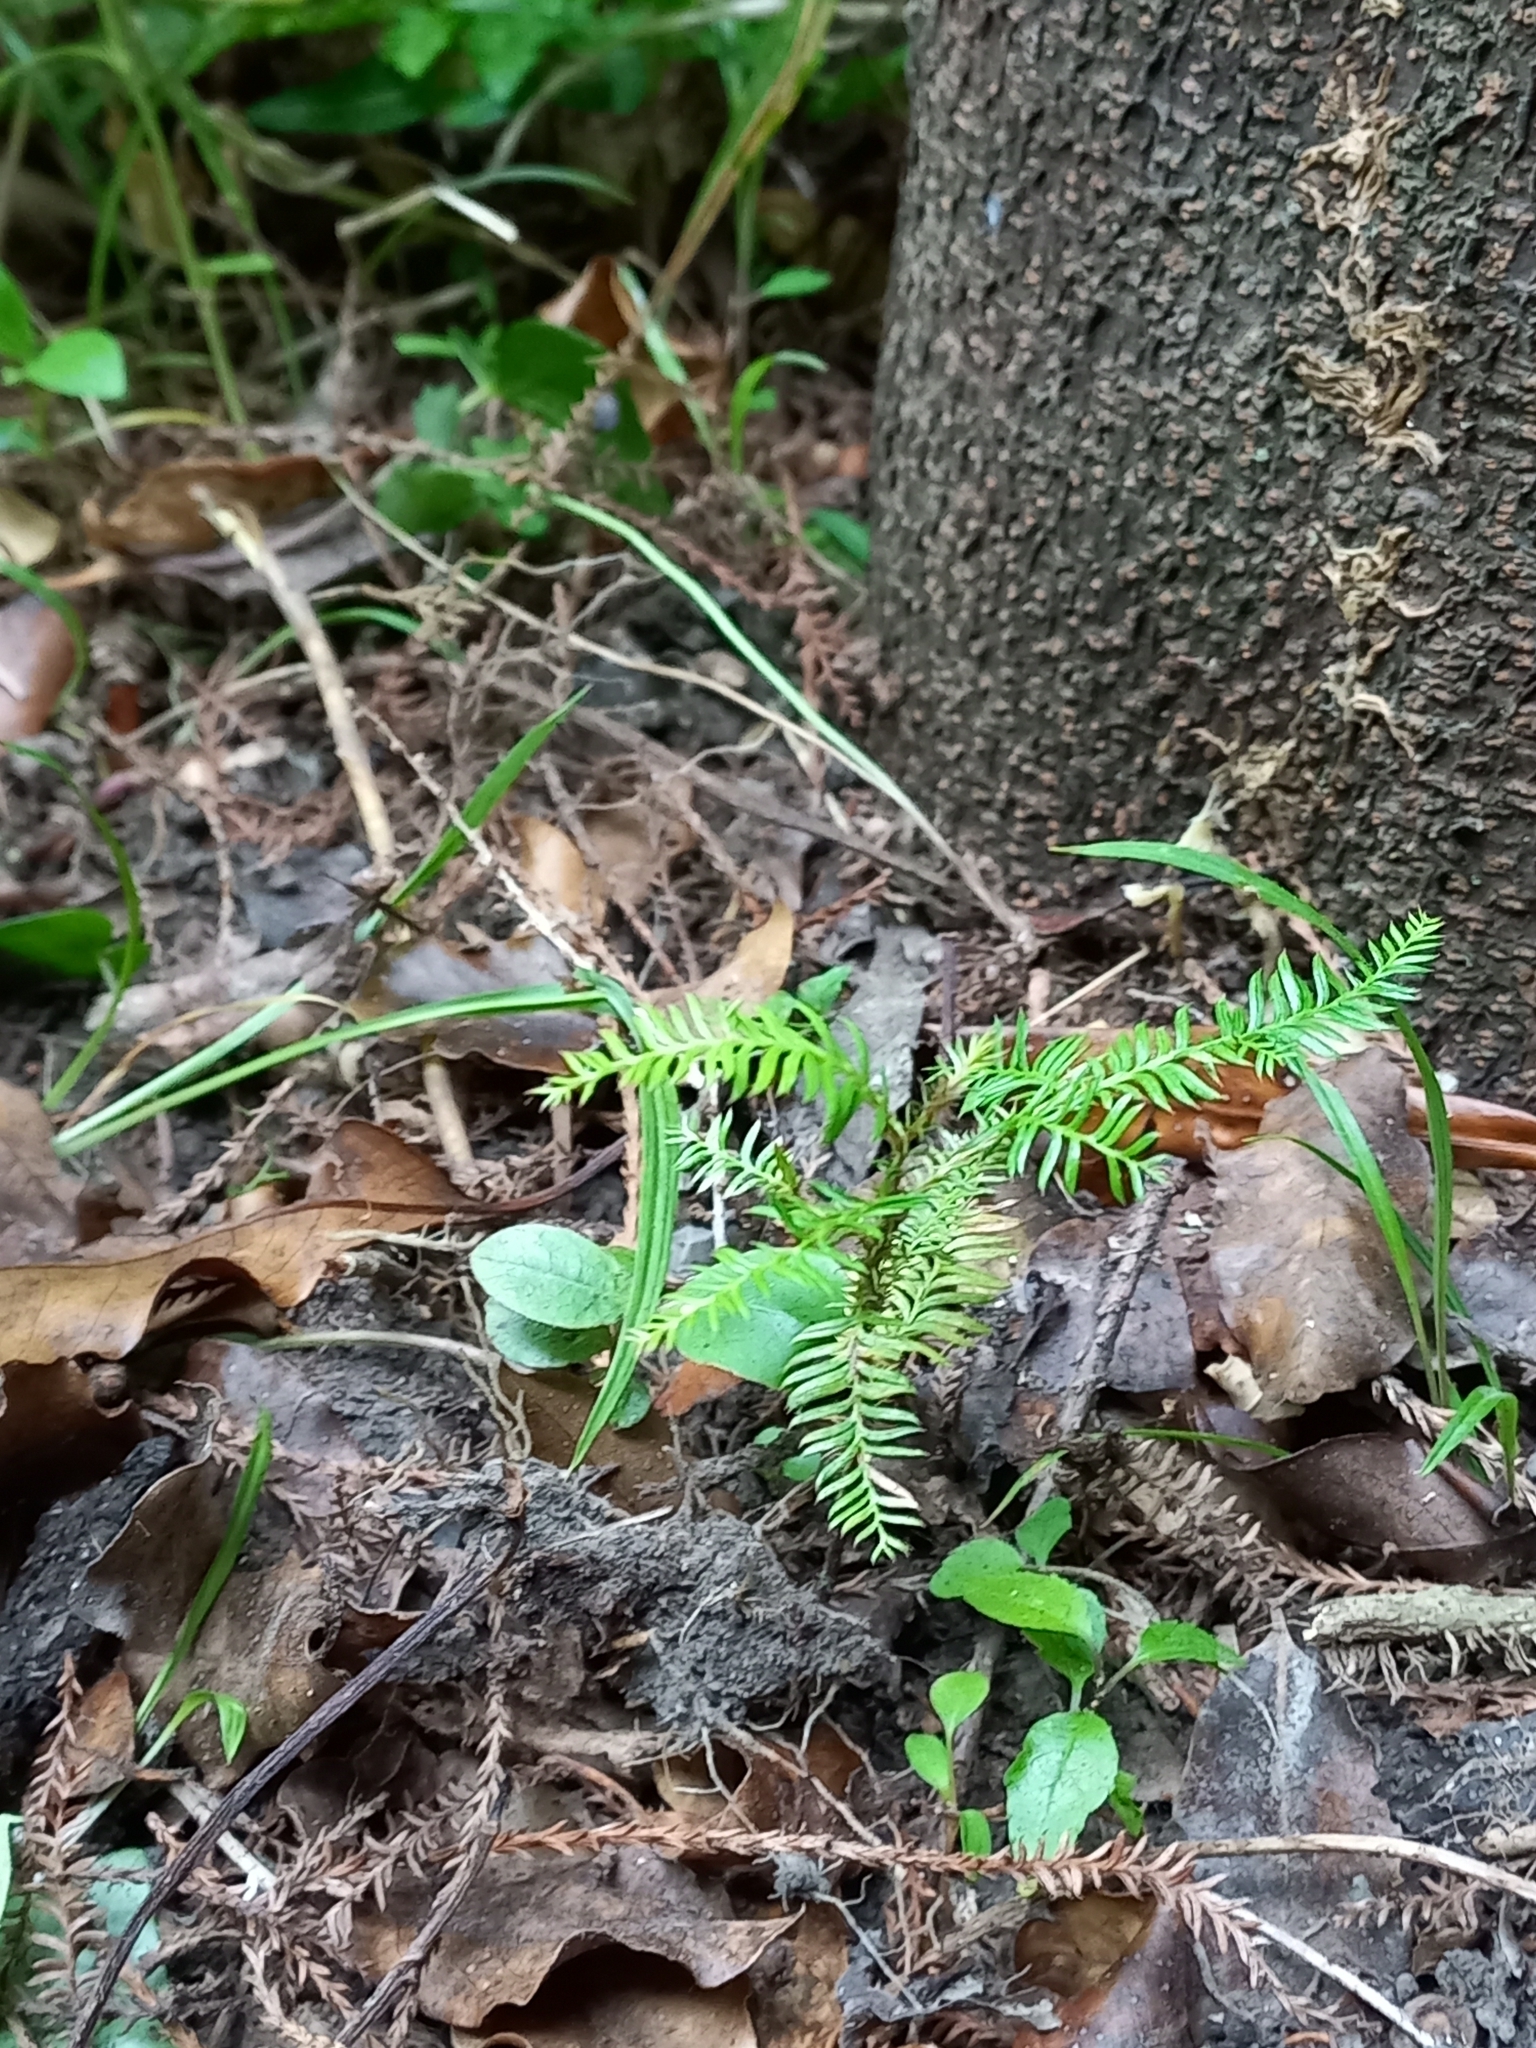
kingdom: Plantae
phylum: Tracheophyta
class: Pinopsida
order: Pinales
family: Podocarpaceae
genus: Dacrycarpus
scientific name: Dacrycarpus dacrydioides
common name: White pine
